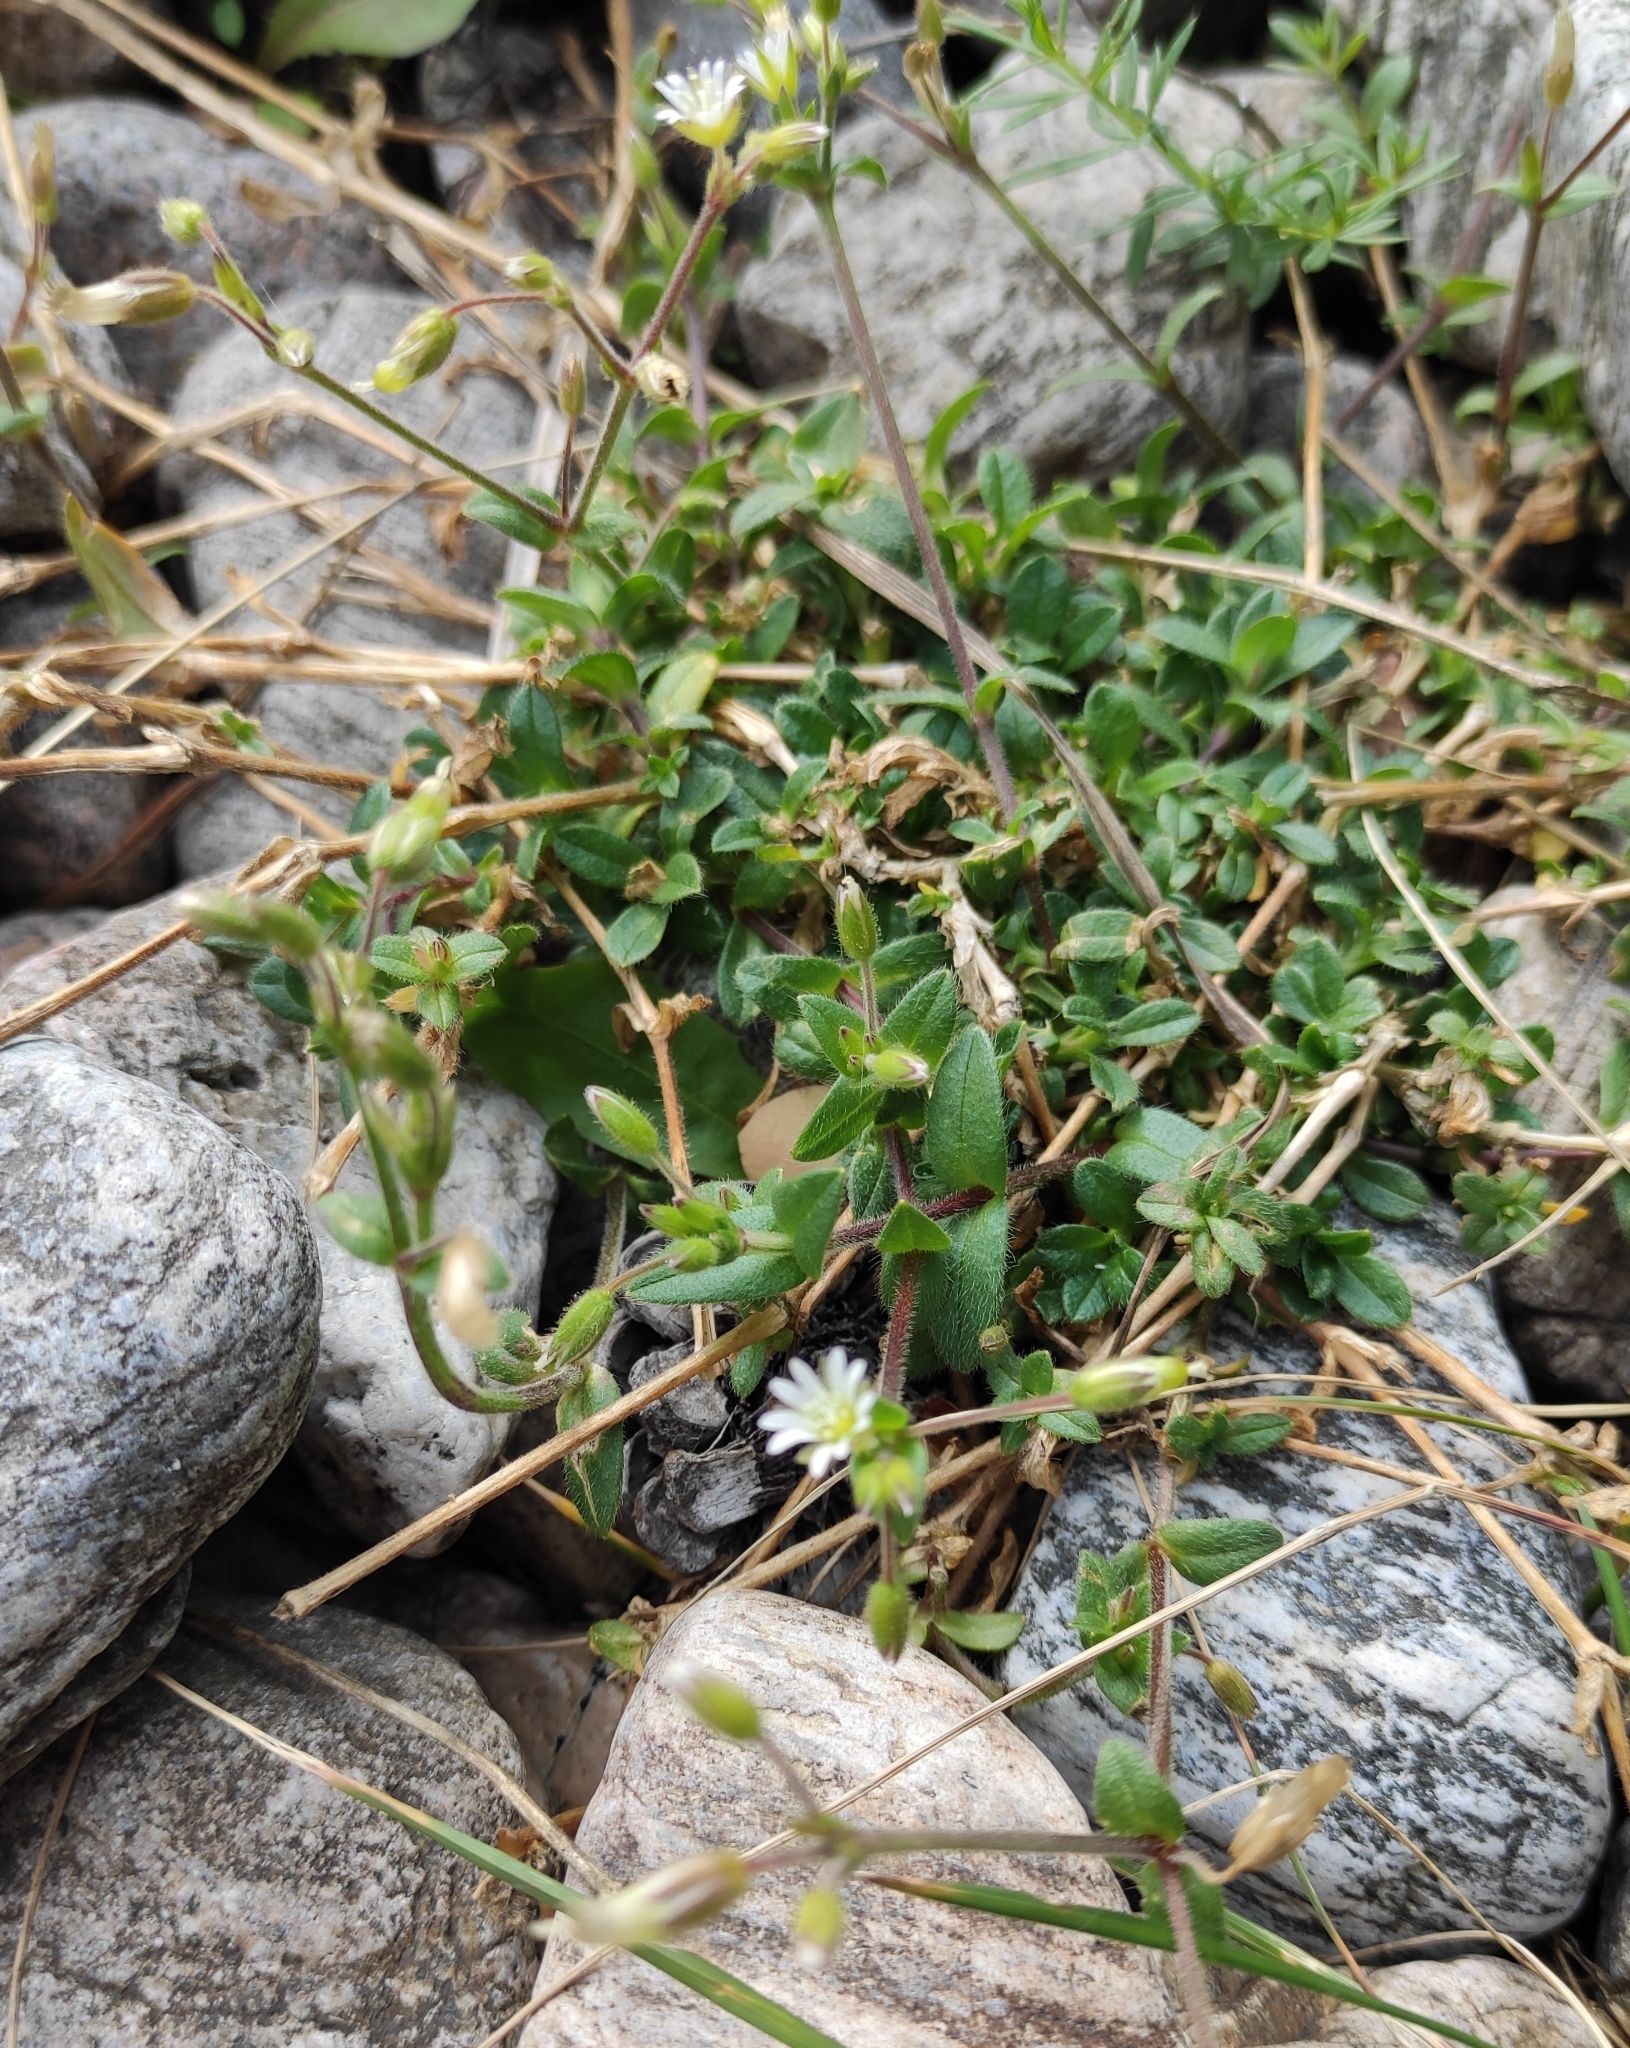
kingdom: Plantae
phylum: Tracheophyta
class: Magnoliopsida
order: Caryophyllales
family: Caryophyllaceae
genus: Cerastium
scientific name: Cerastium holosteoides
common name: Big chickweed
